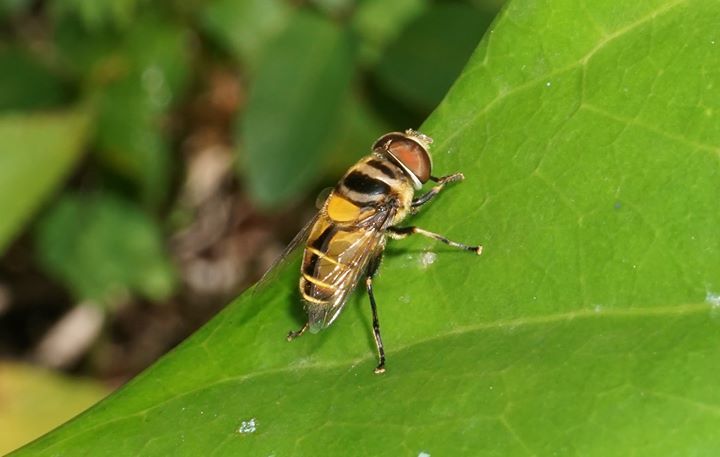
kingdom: Animalia
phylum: Arthropoda
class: Insecta
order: Diptera
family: Syrphidae
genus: Palpada
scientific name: Palpada agrorum
